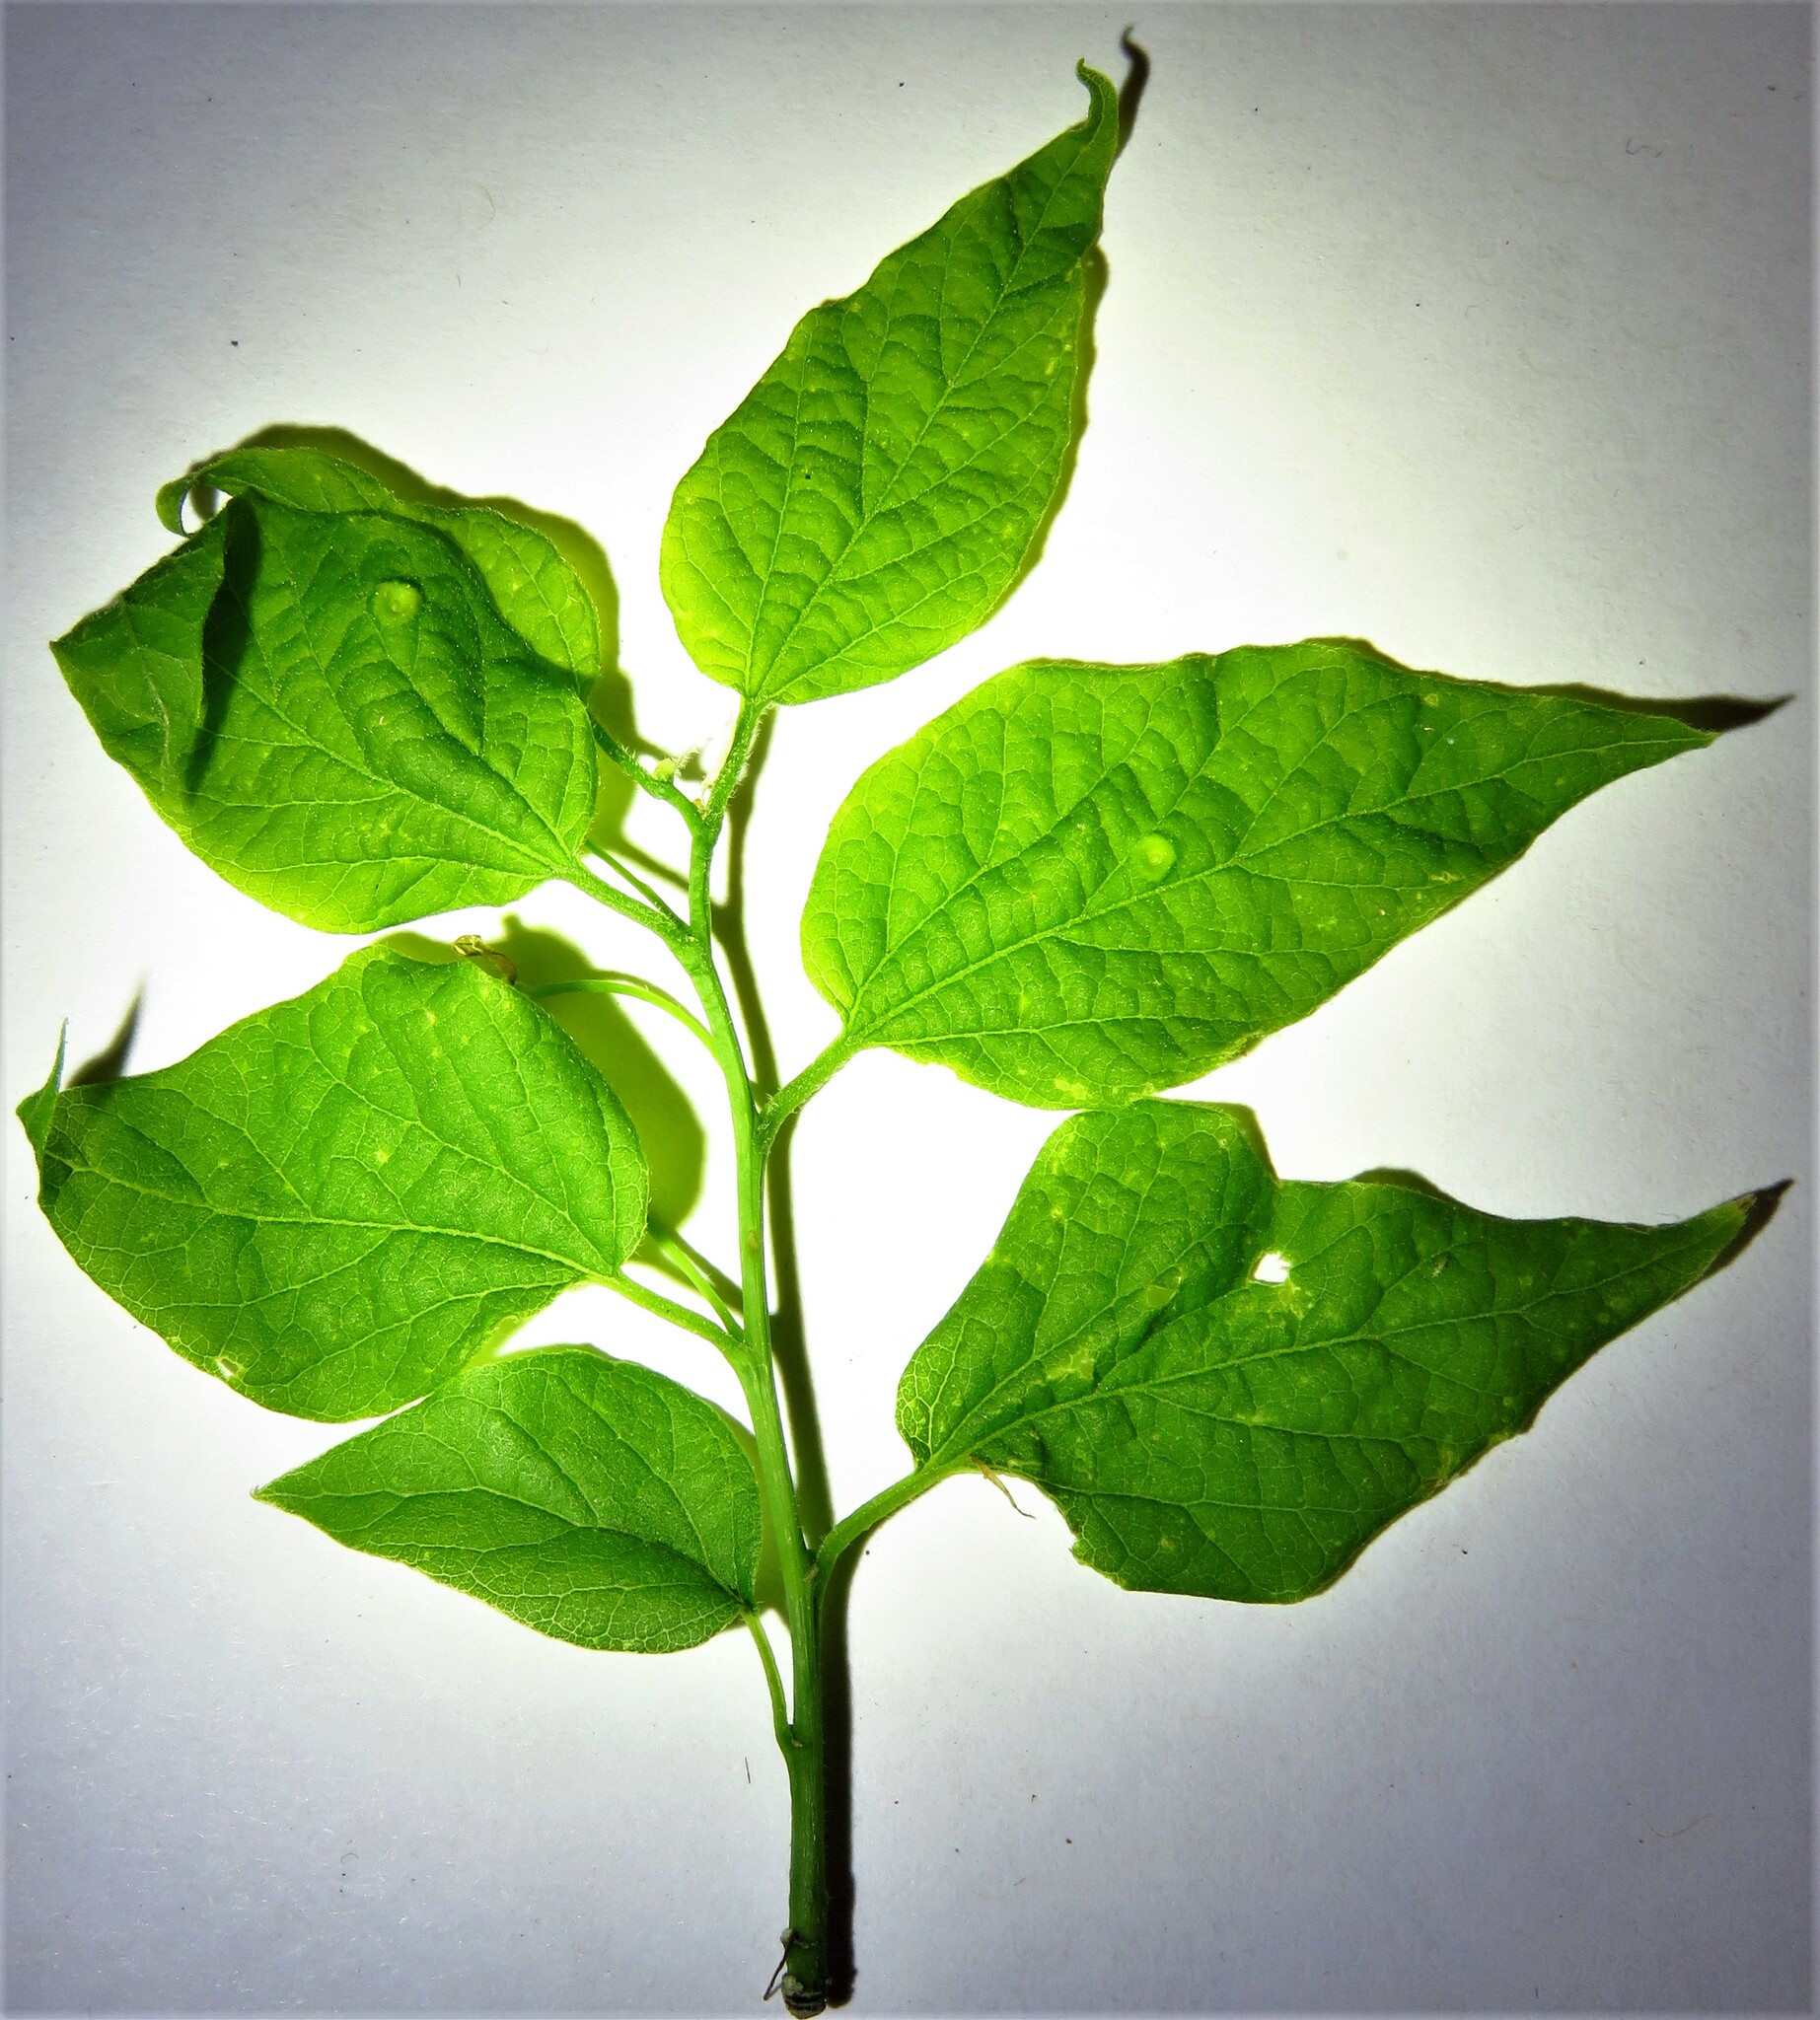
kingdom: Plantae
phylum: Tracheophyta
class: Magnoliopsida
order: Rosales
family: Cannabaceae
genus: Celtis
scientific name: Celtis laevigata
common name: Sugarberry
